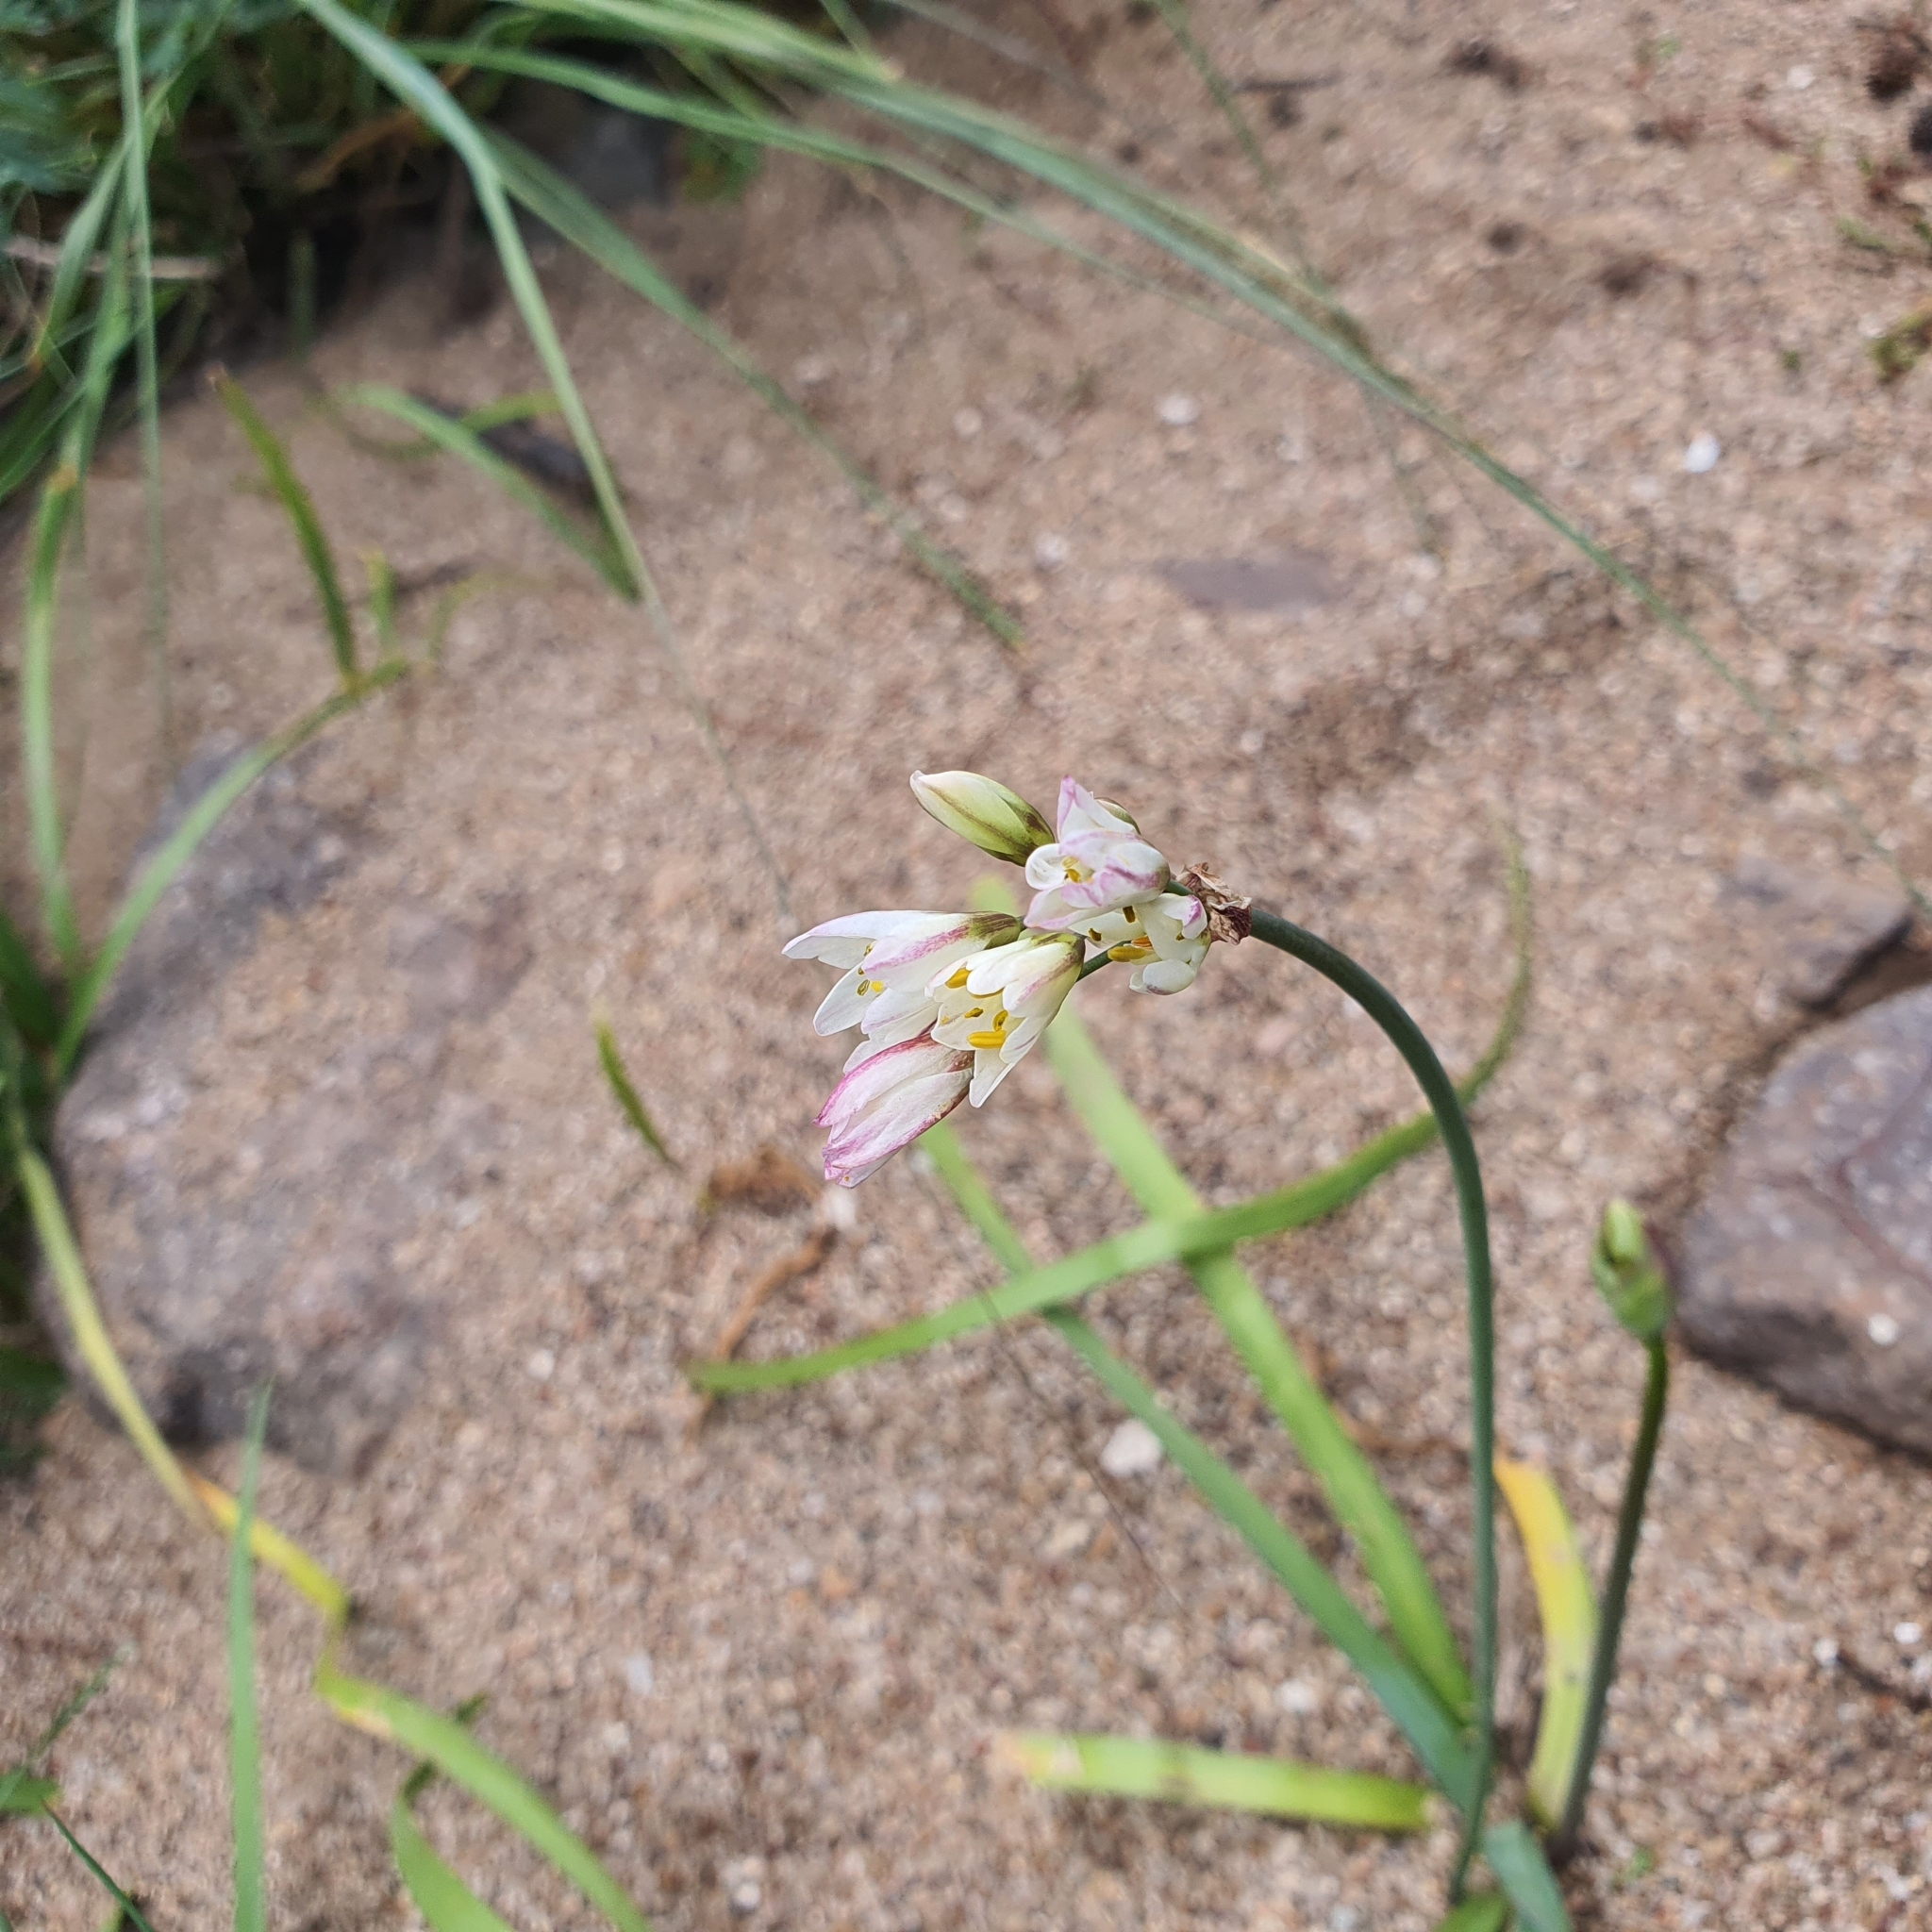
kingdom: Plantae
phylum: Tracheophyta
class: Liliopsida
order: Asparagales
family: Amaryllidaceae
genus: Nothoscordum
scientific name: Nothoscordum gracile
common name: Slender false garlic
